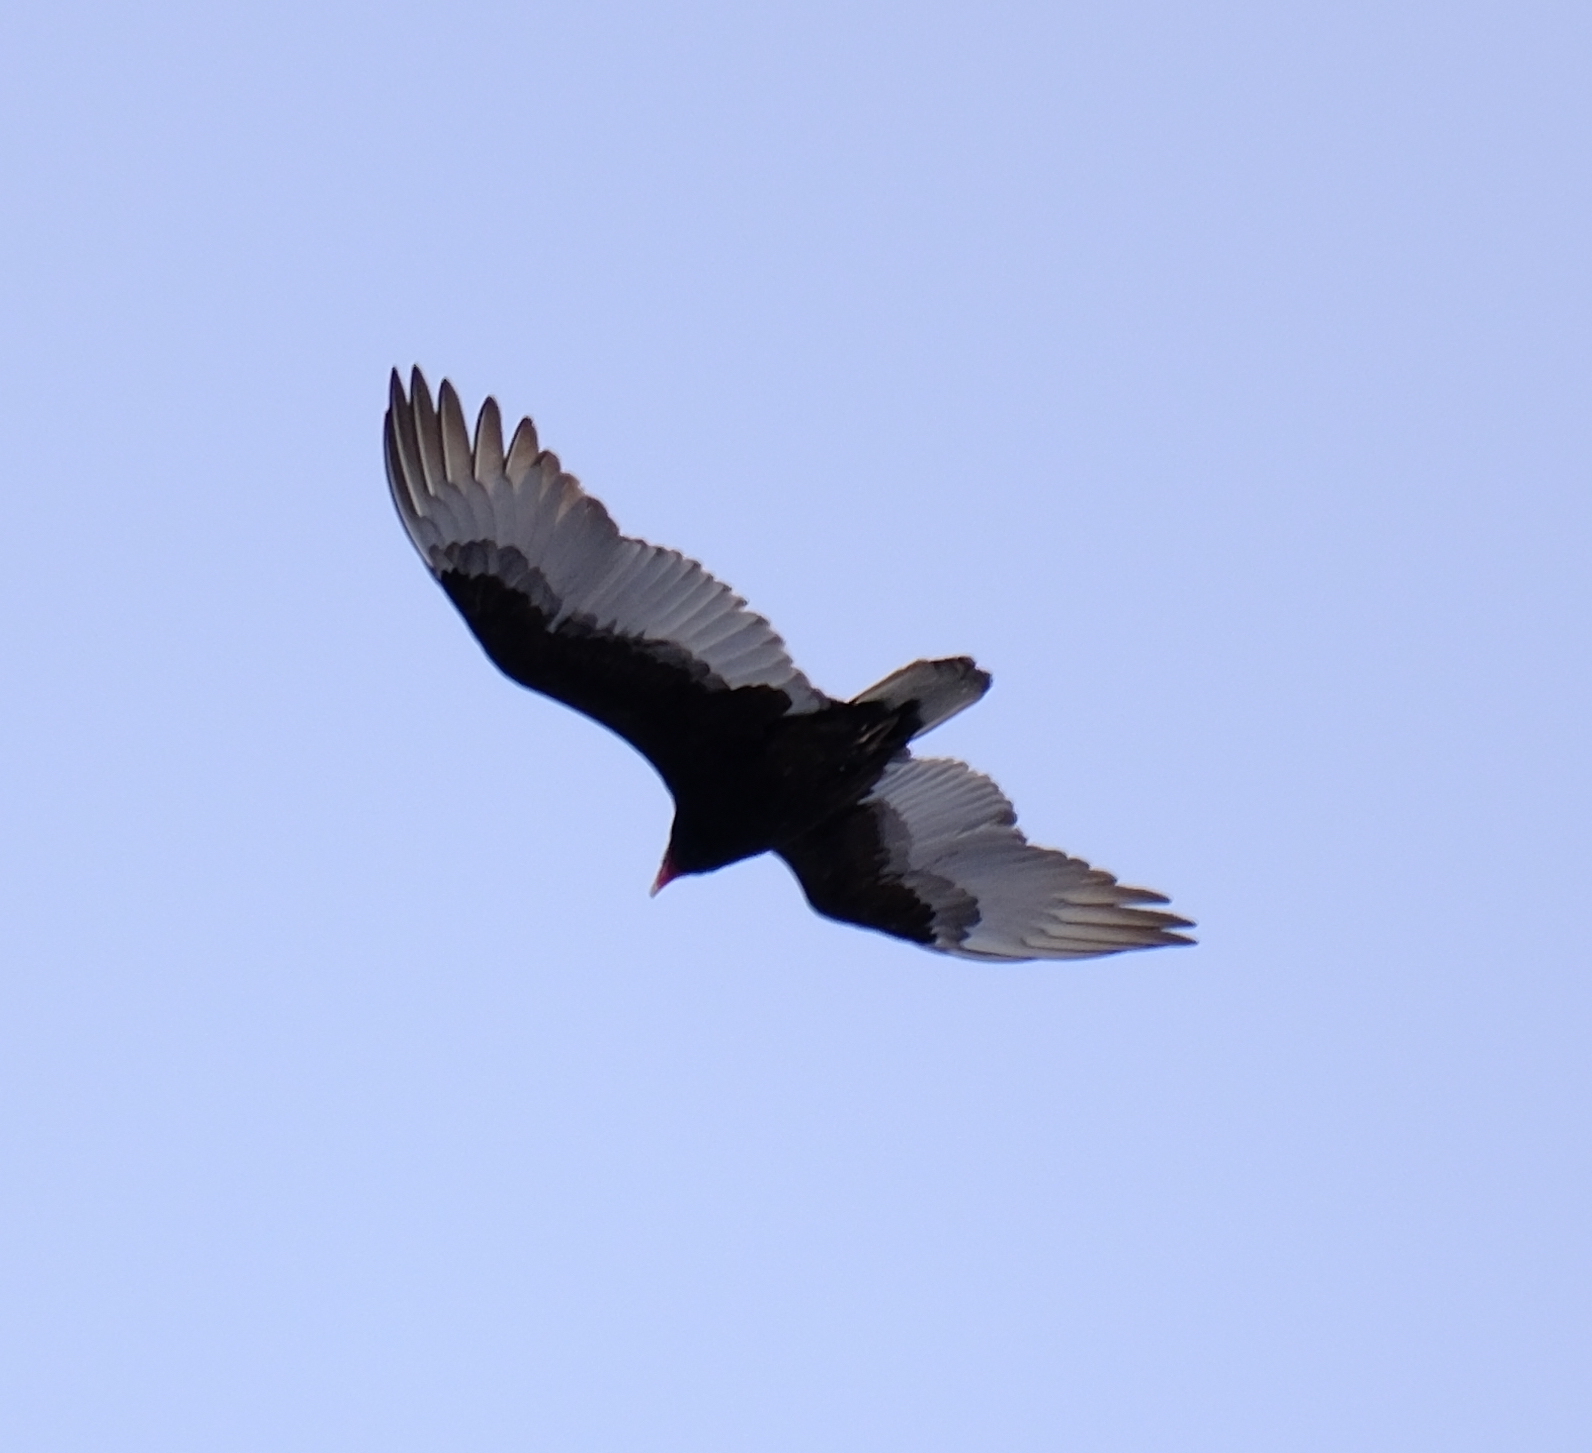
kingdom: Animalia
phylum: Chordata
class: Aves
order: Accipitriformes
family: Cathartidae
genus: Cathartes
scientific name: Cathartes aura
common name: Turkey vulture
